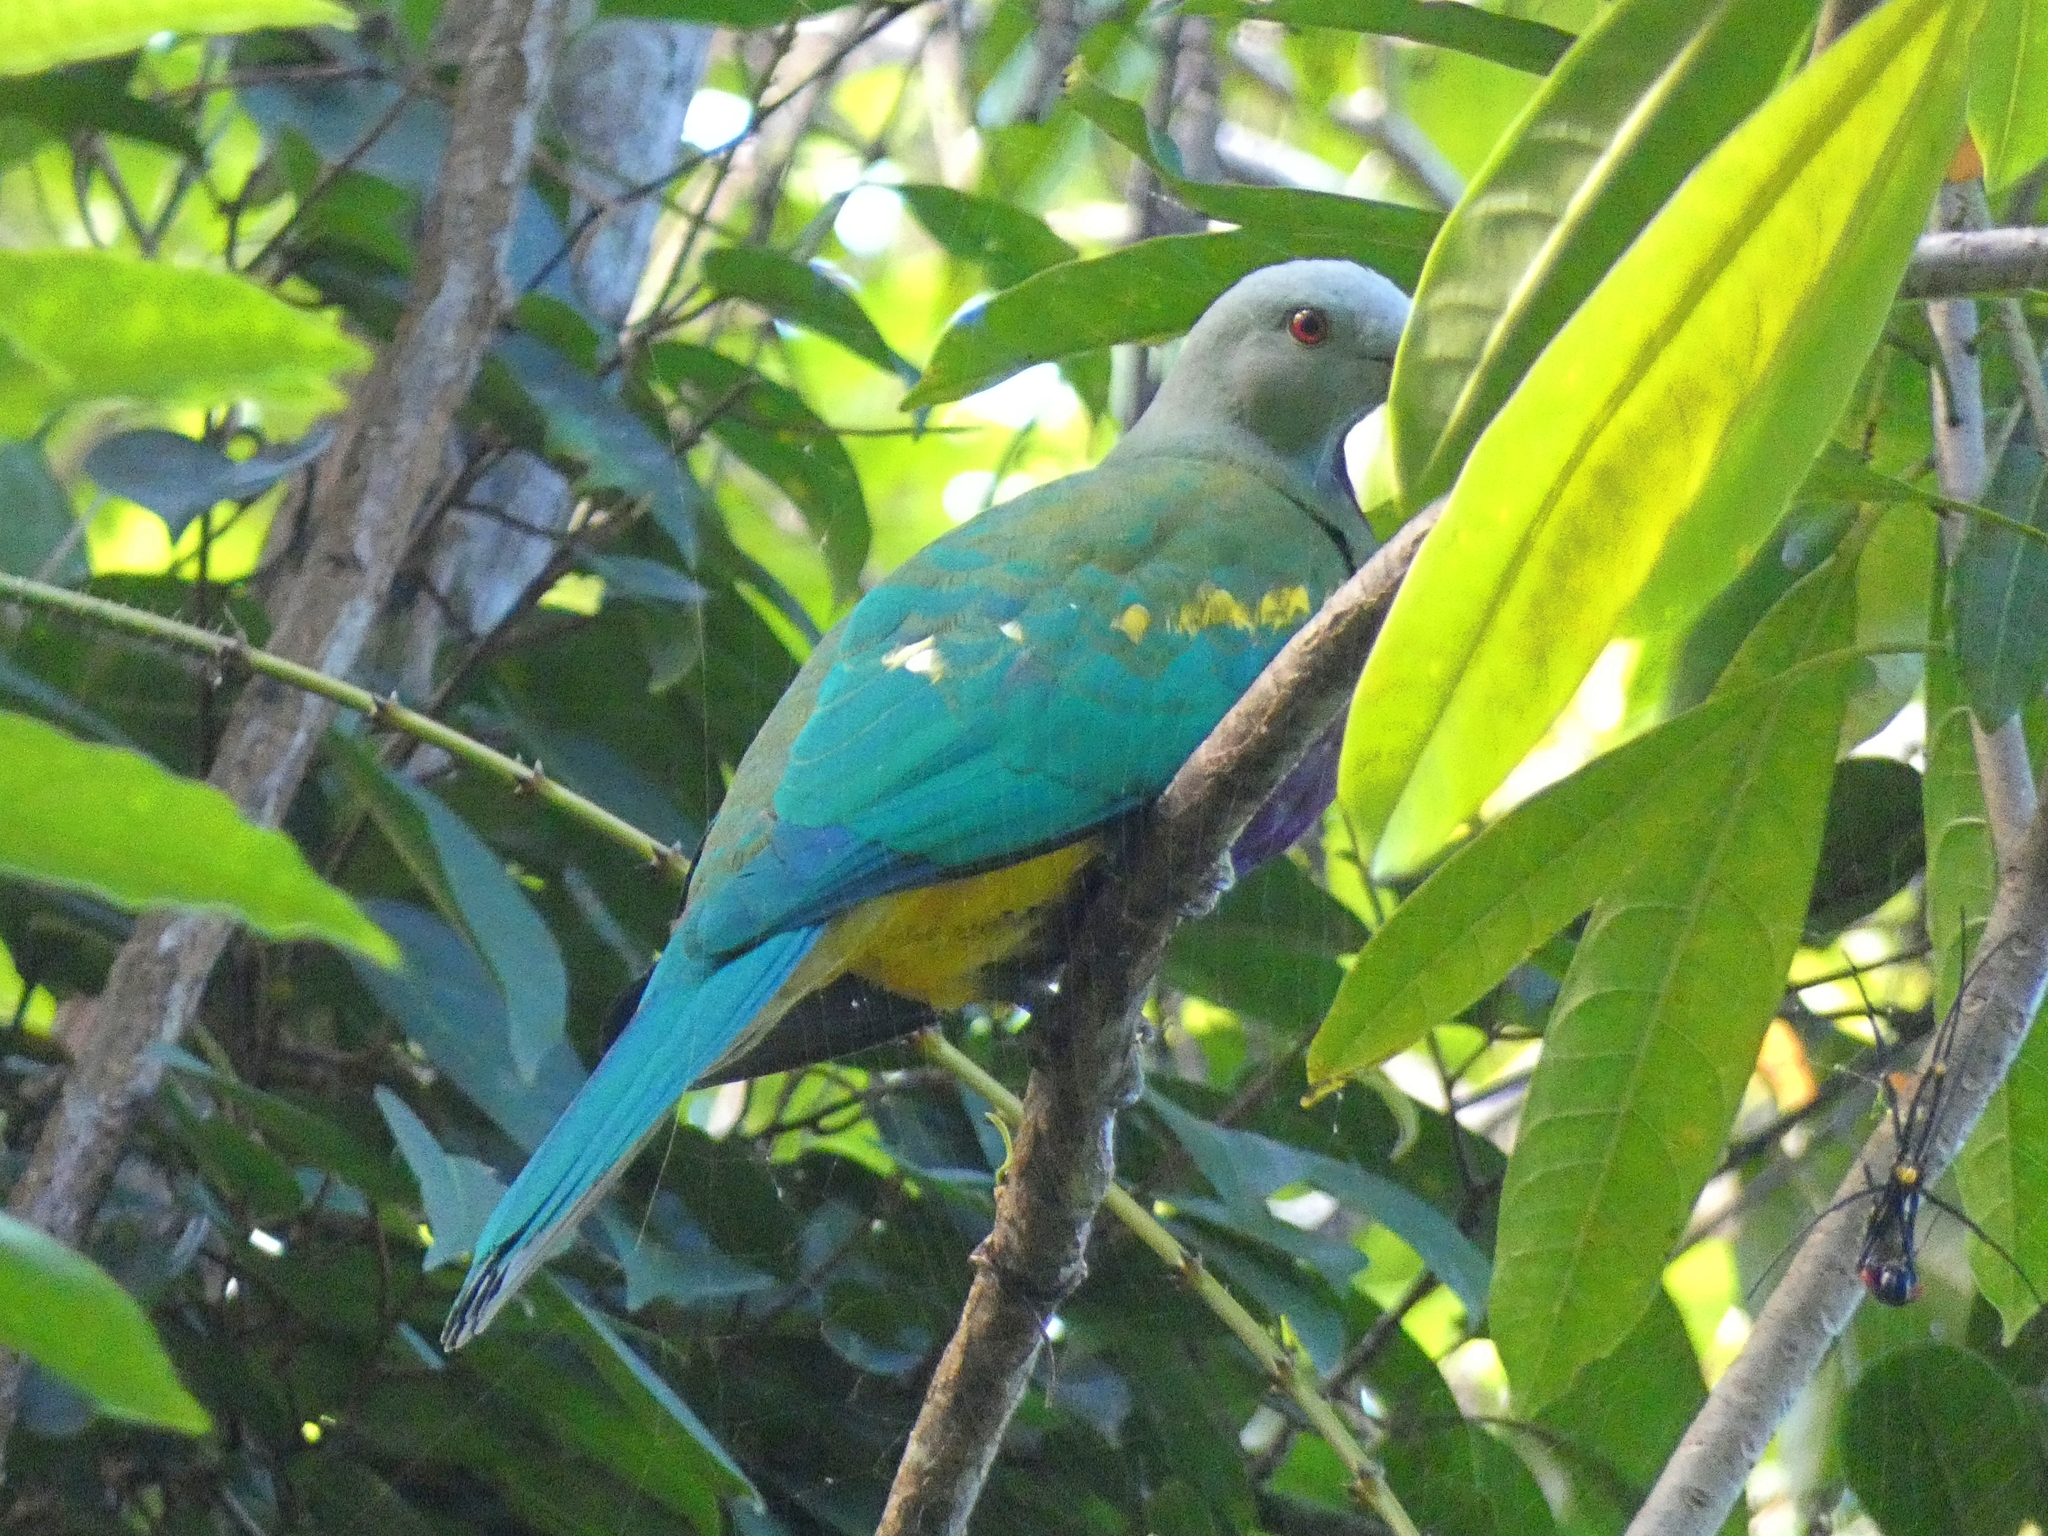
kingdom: Animalia
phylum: Chordata
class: Aves
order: Columbiformes
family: Columbidae
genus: Ptilinopus
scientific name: Ptilinopus magnificus
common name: Wompoo fruit dove
